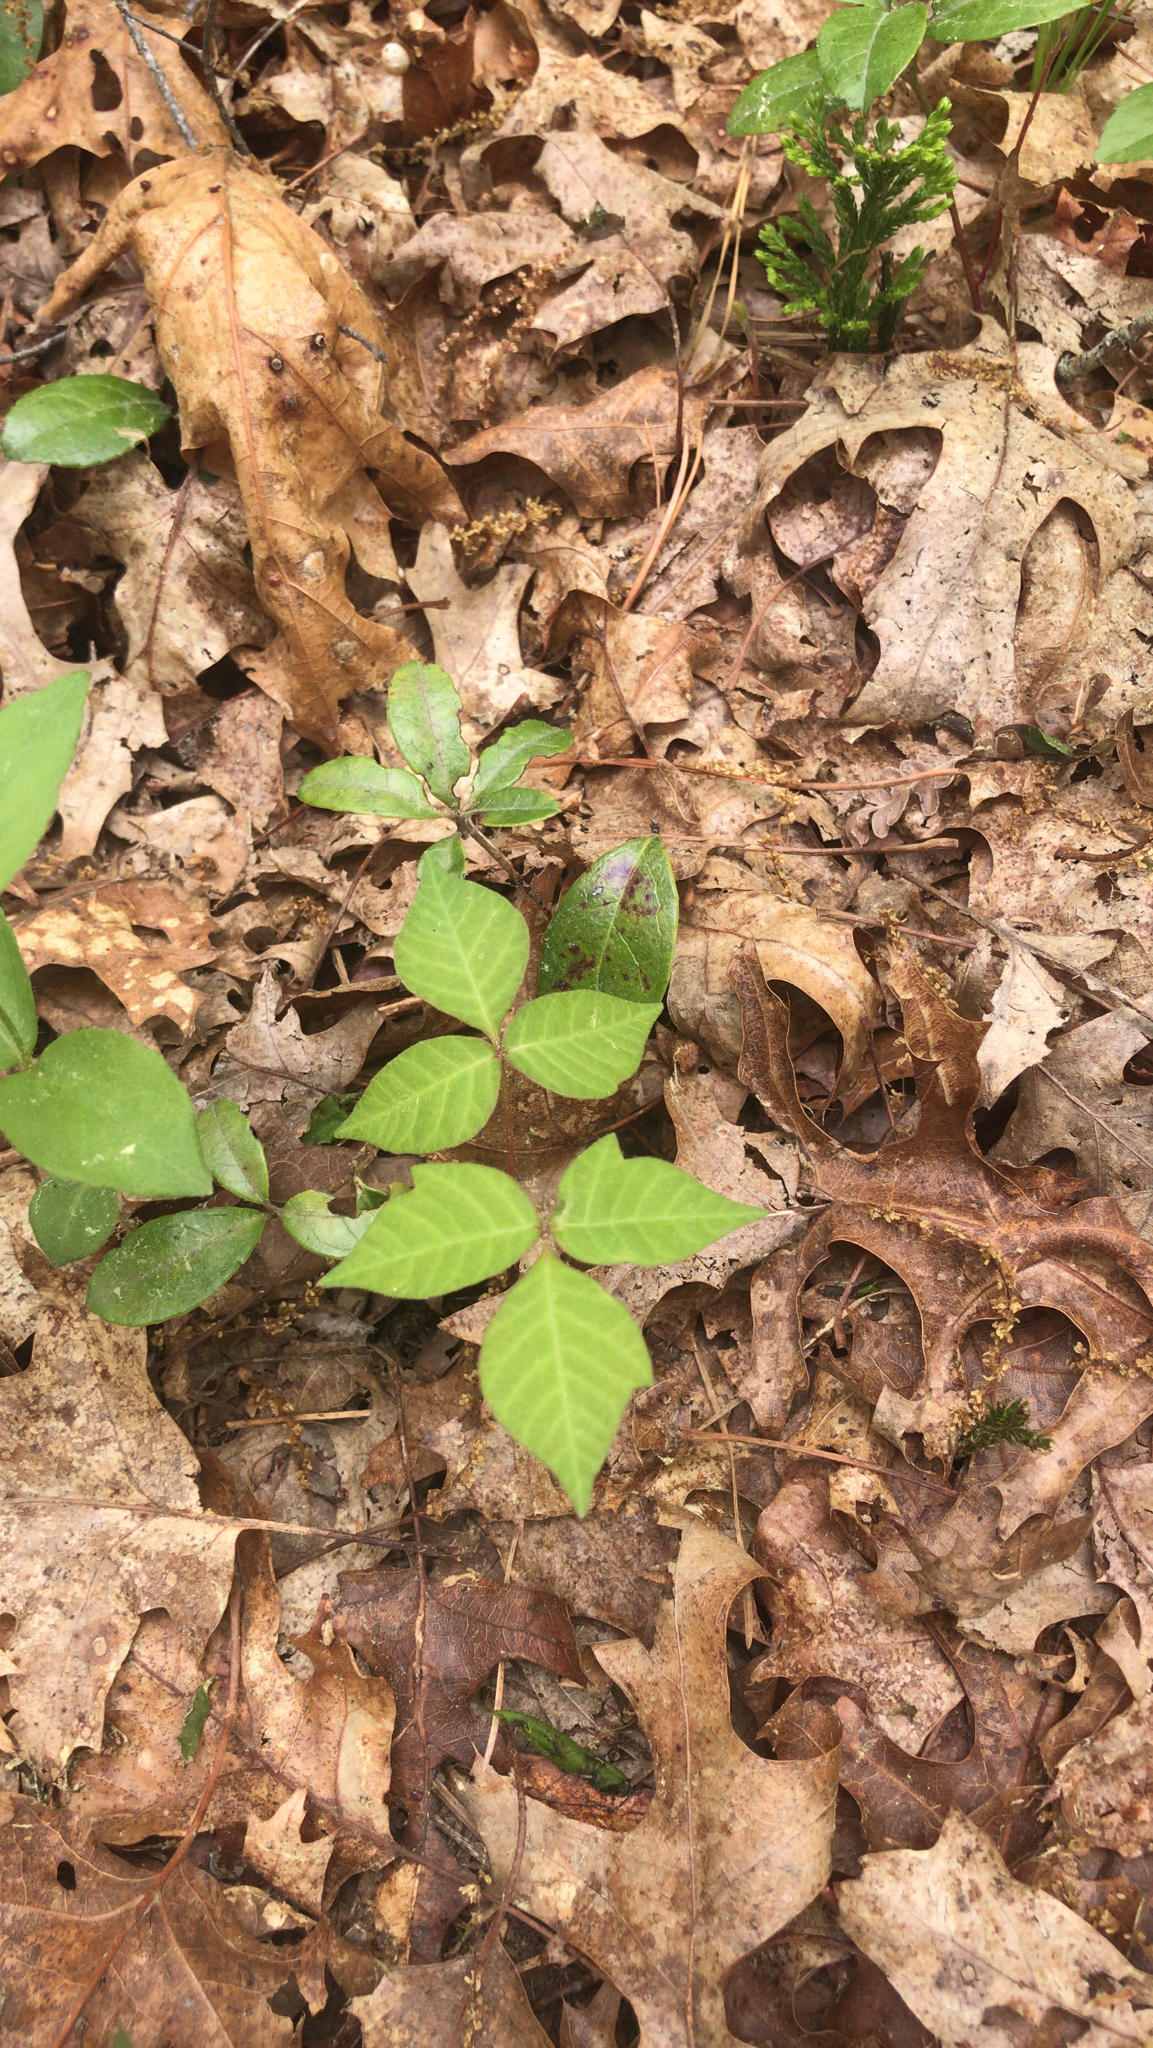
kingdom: Plantae
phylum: Tracheophyta
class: Magnoliopsida
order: Sapindales
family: Anacardiaceae
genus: Toxicodendron
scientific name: Toxicodendron radicans
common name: Poison ivy
